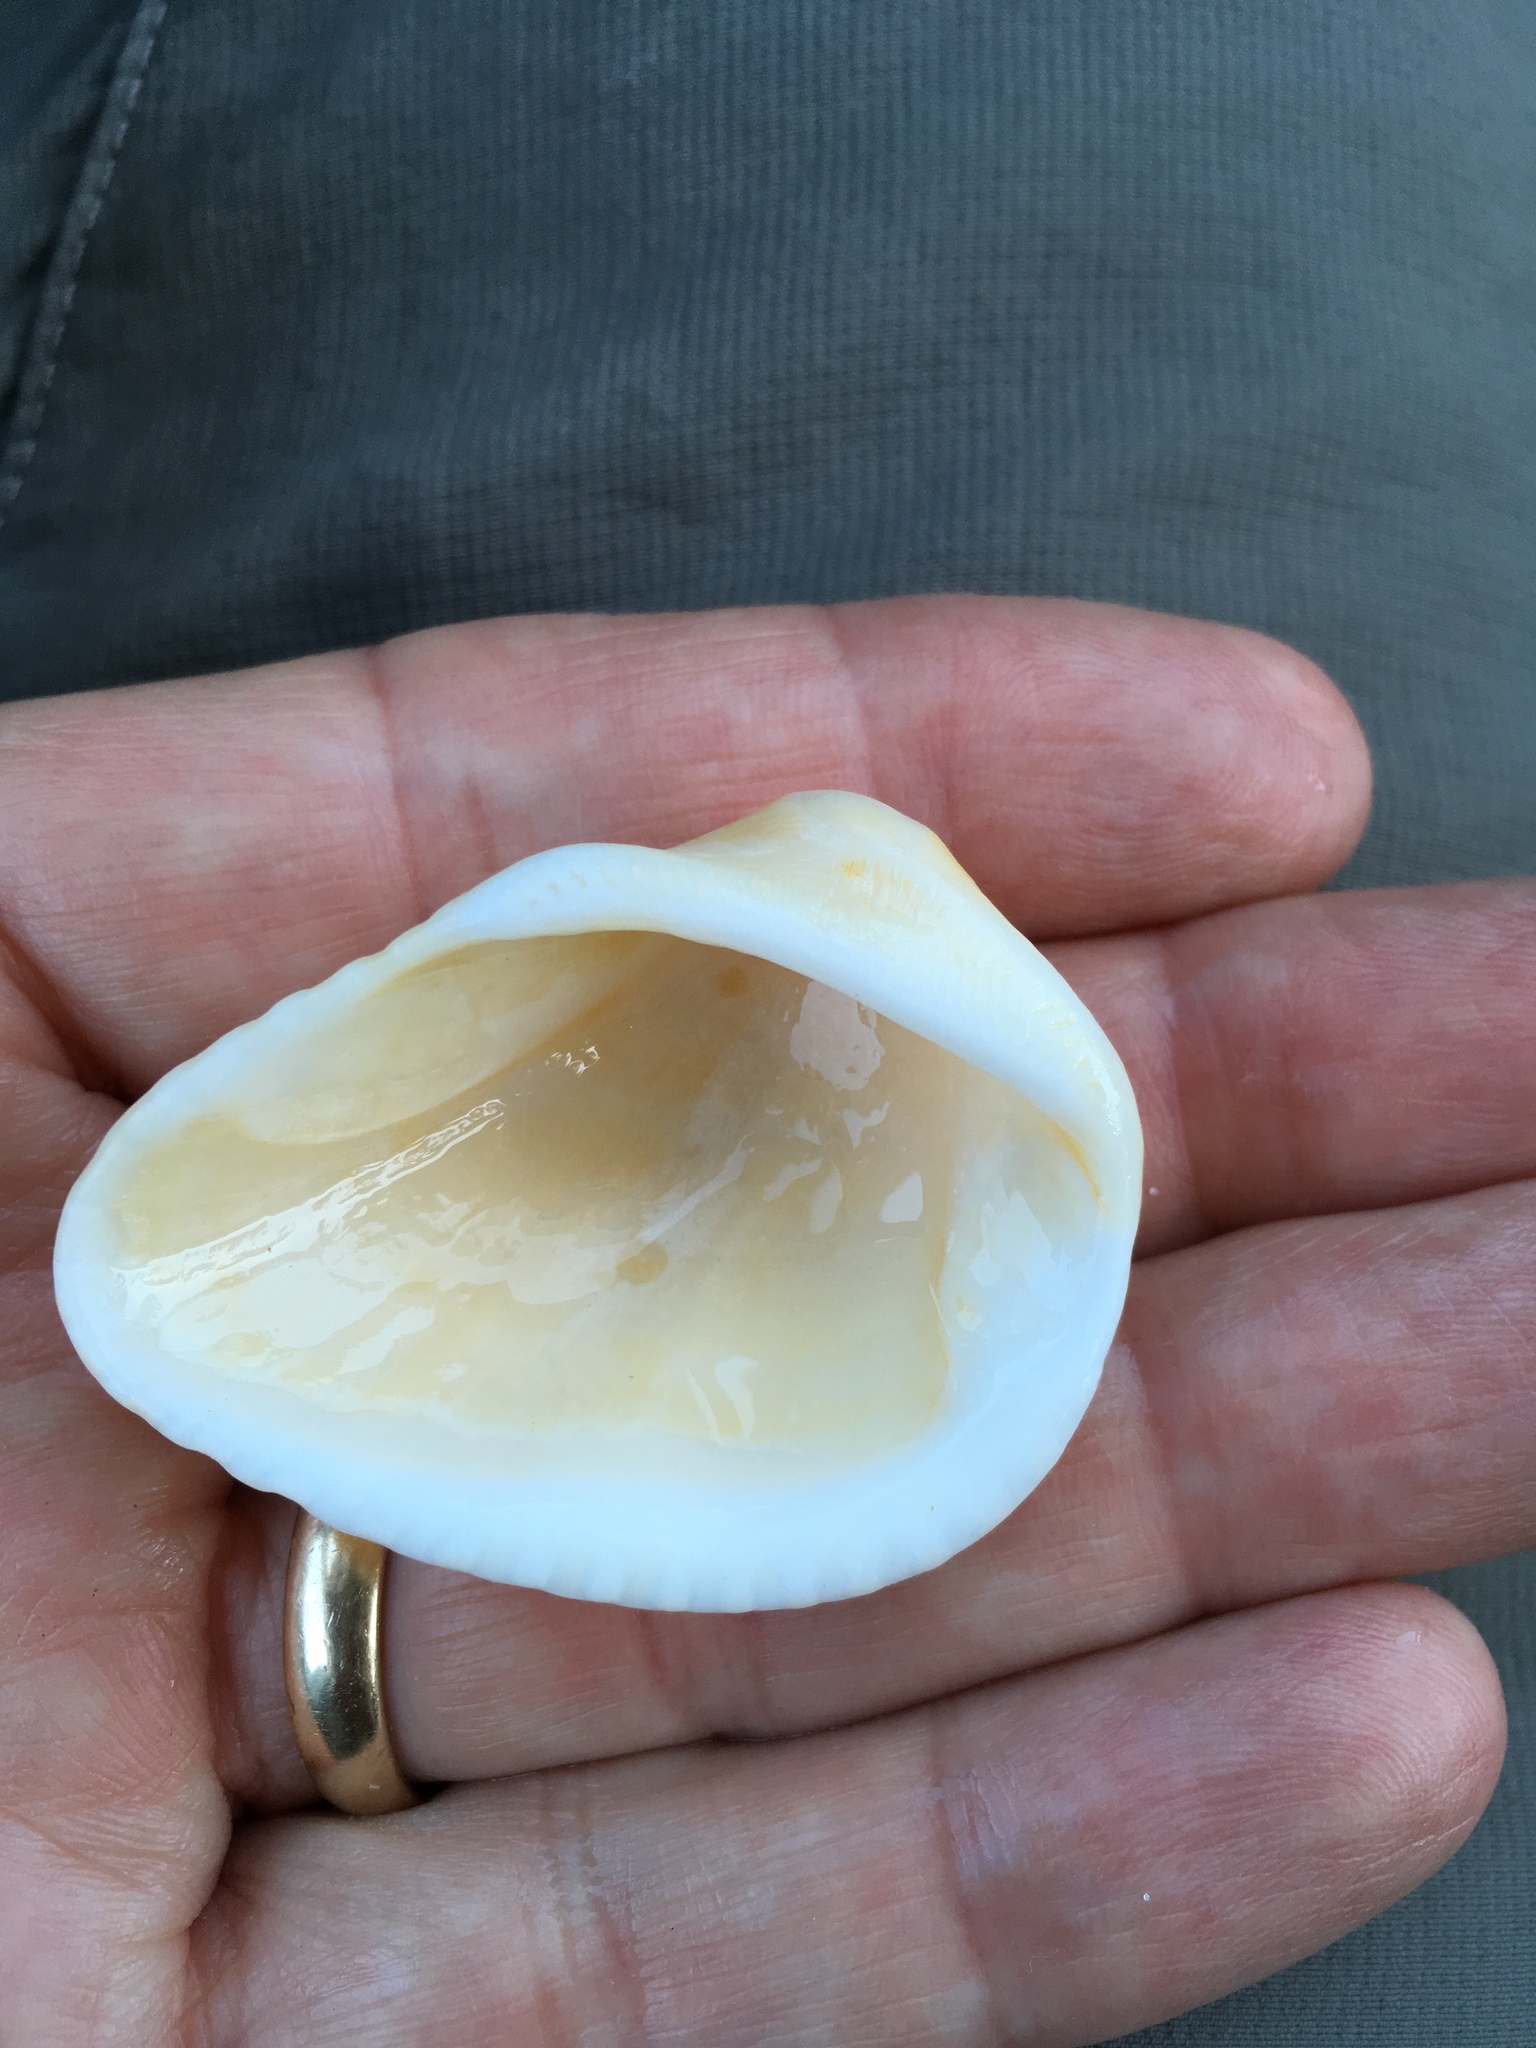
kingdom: Animalia
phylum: Mollusca
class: Bivalvia
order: Arcida
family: Noetiidae
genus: Noetia
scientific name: Noetia ponderosa
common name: Ponderous ark
